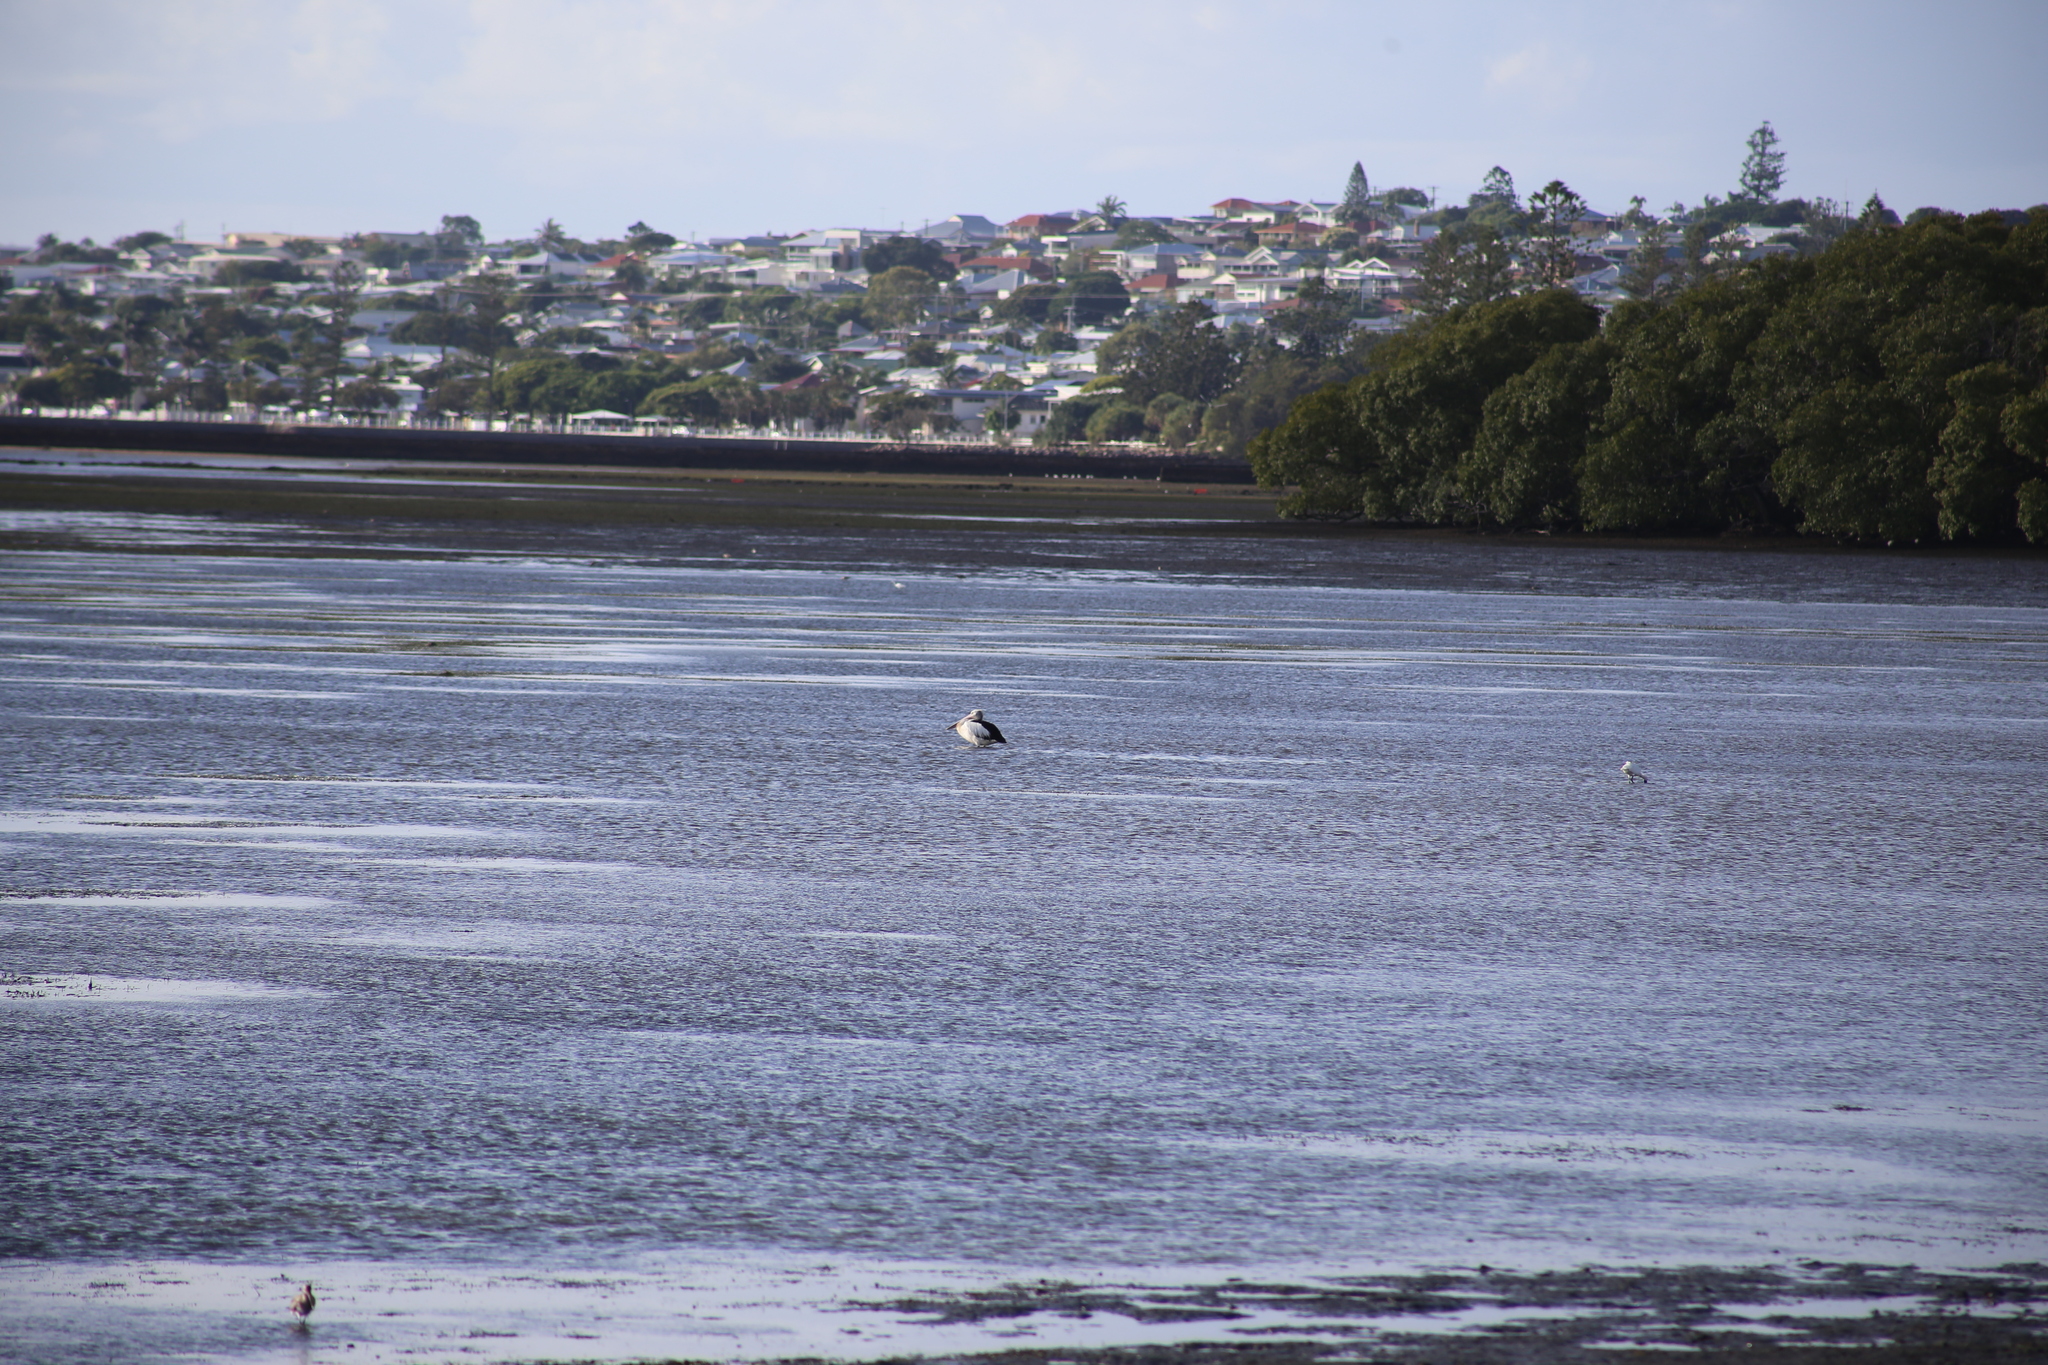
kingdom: Animalia
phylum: Chordata
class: Aves
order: Pelecaniformes
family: Pelecanidae
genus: Pelecanus
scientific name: Pelecanus conspicillatus
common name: Australian pelican
